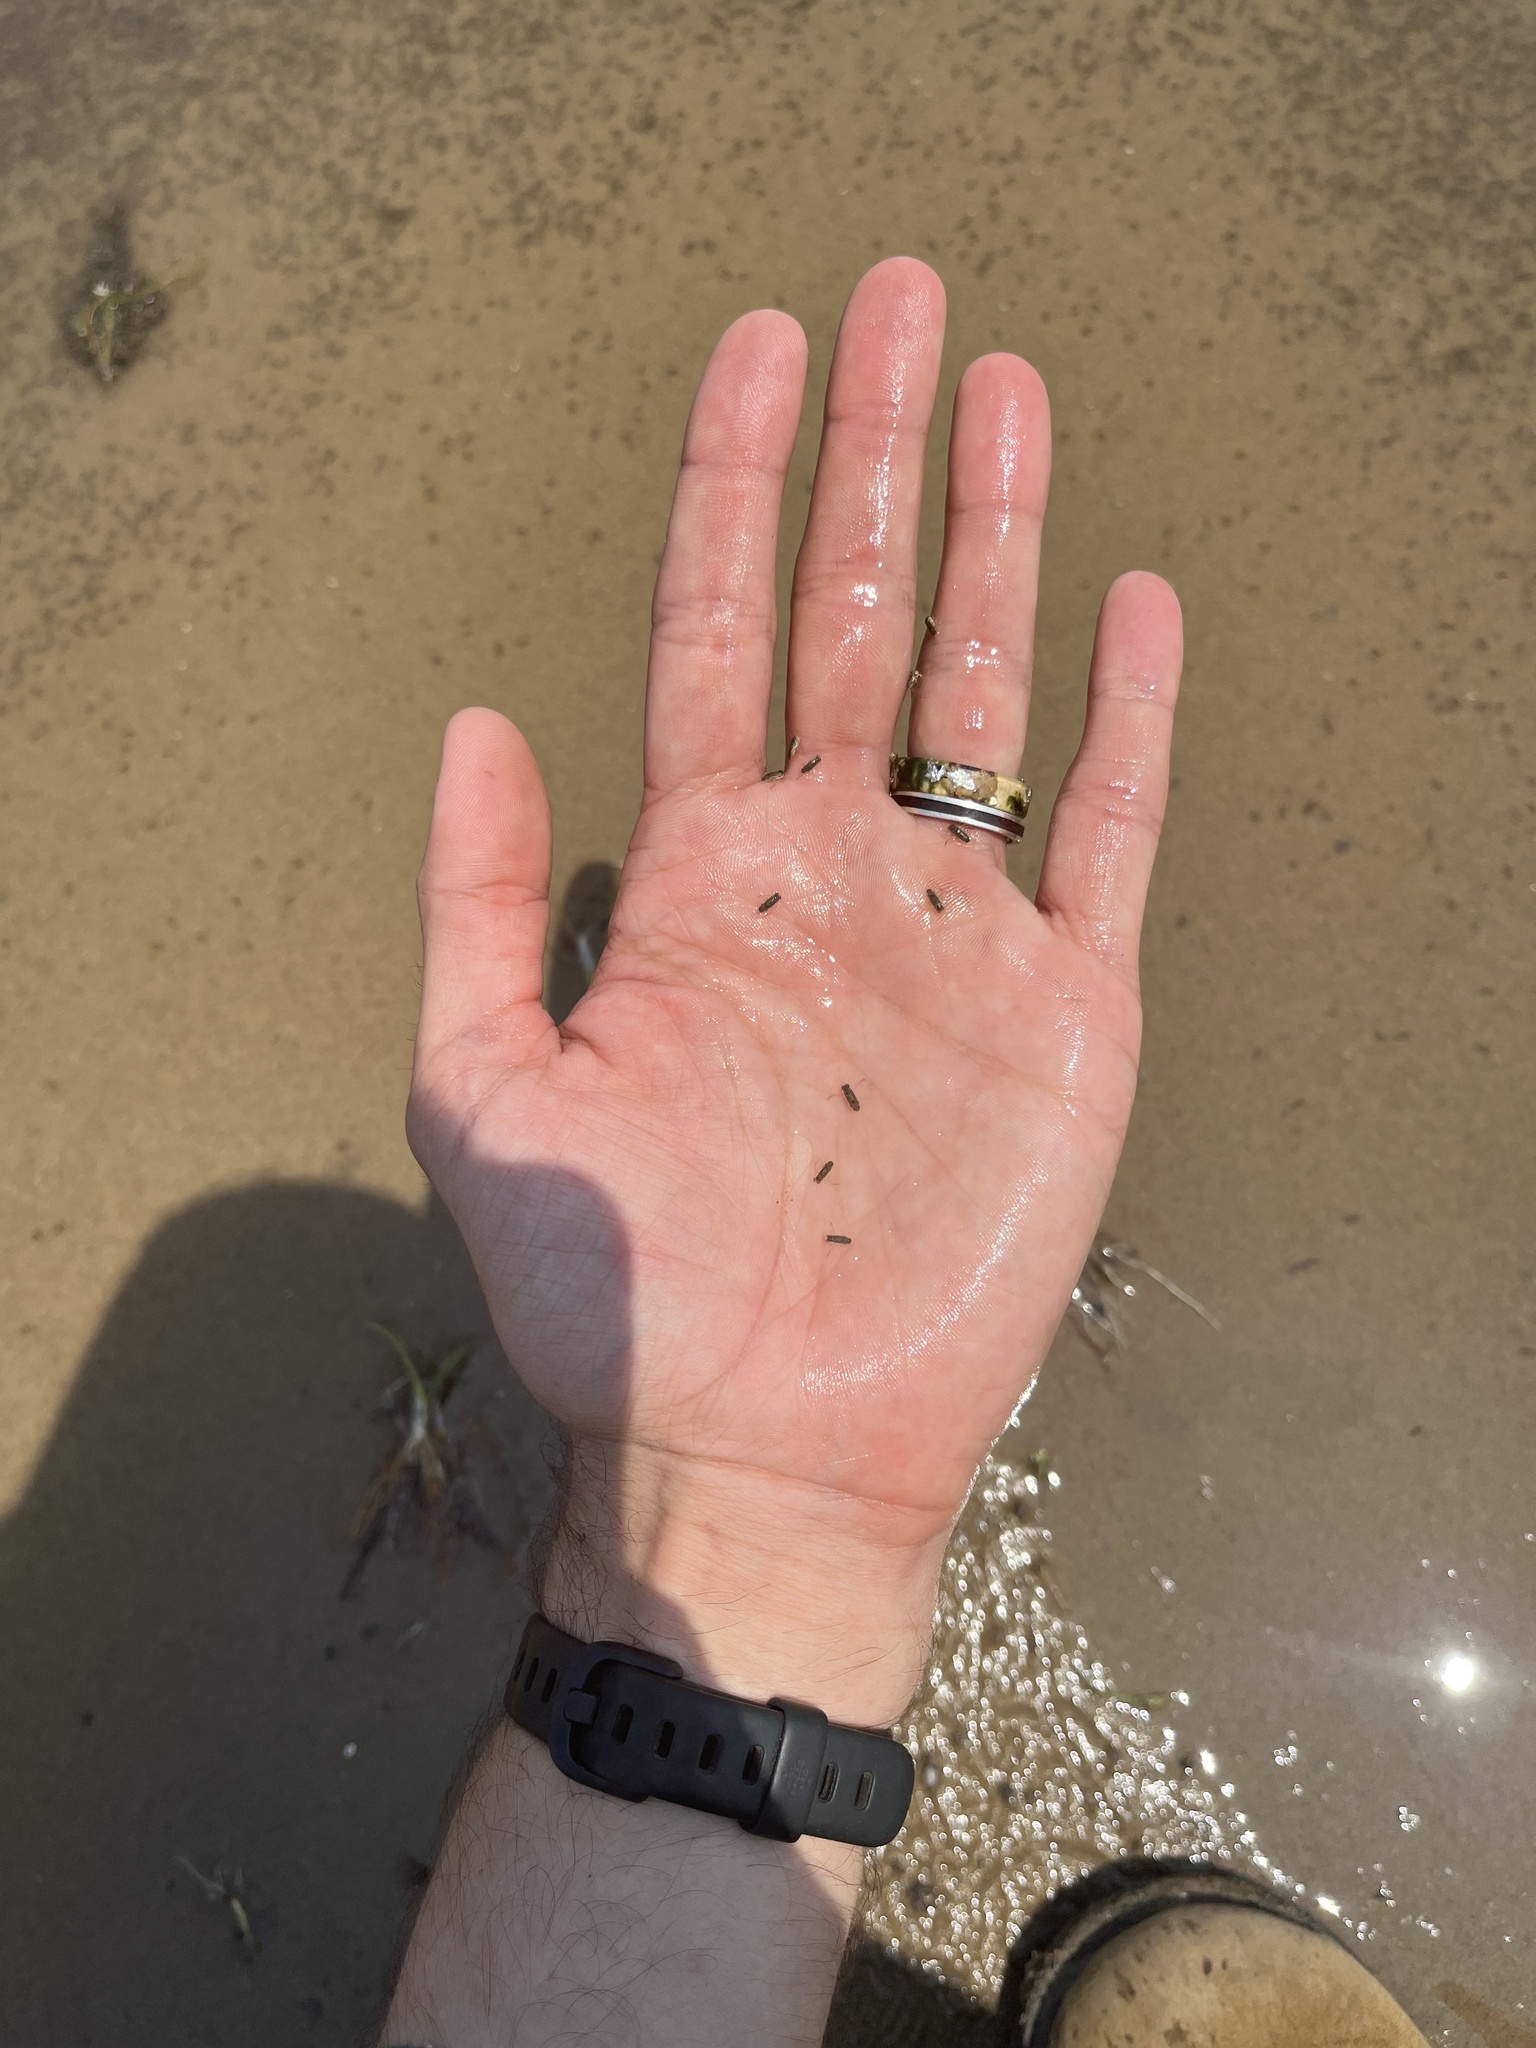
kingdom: Animalia
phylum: Arthropoda
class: Insecta
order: Hemiptera
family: Corixidae
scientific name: Corixidae
